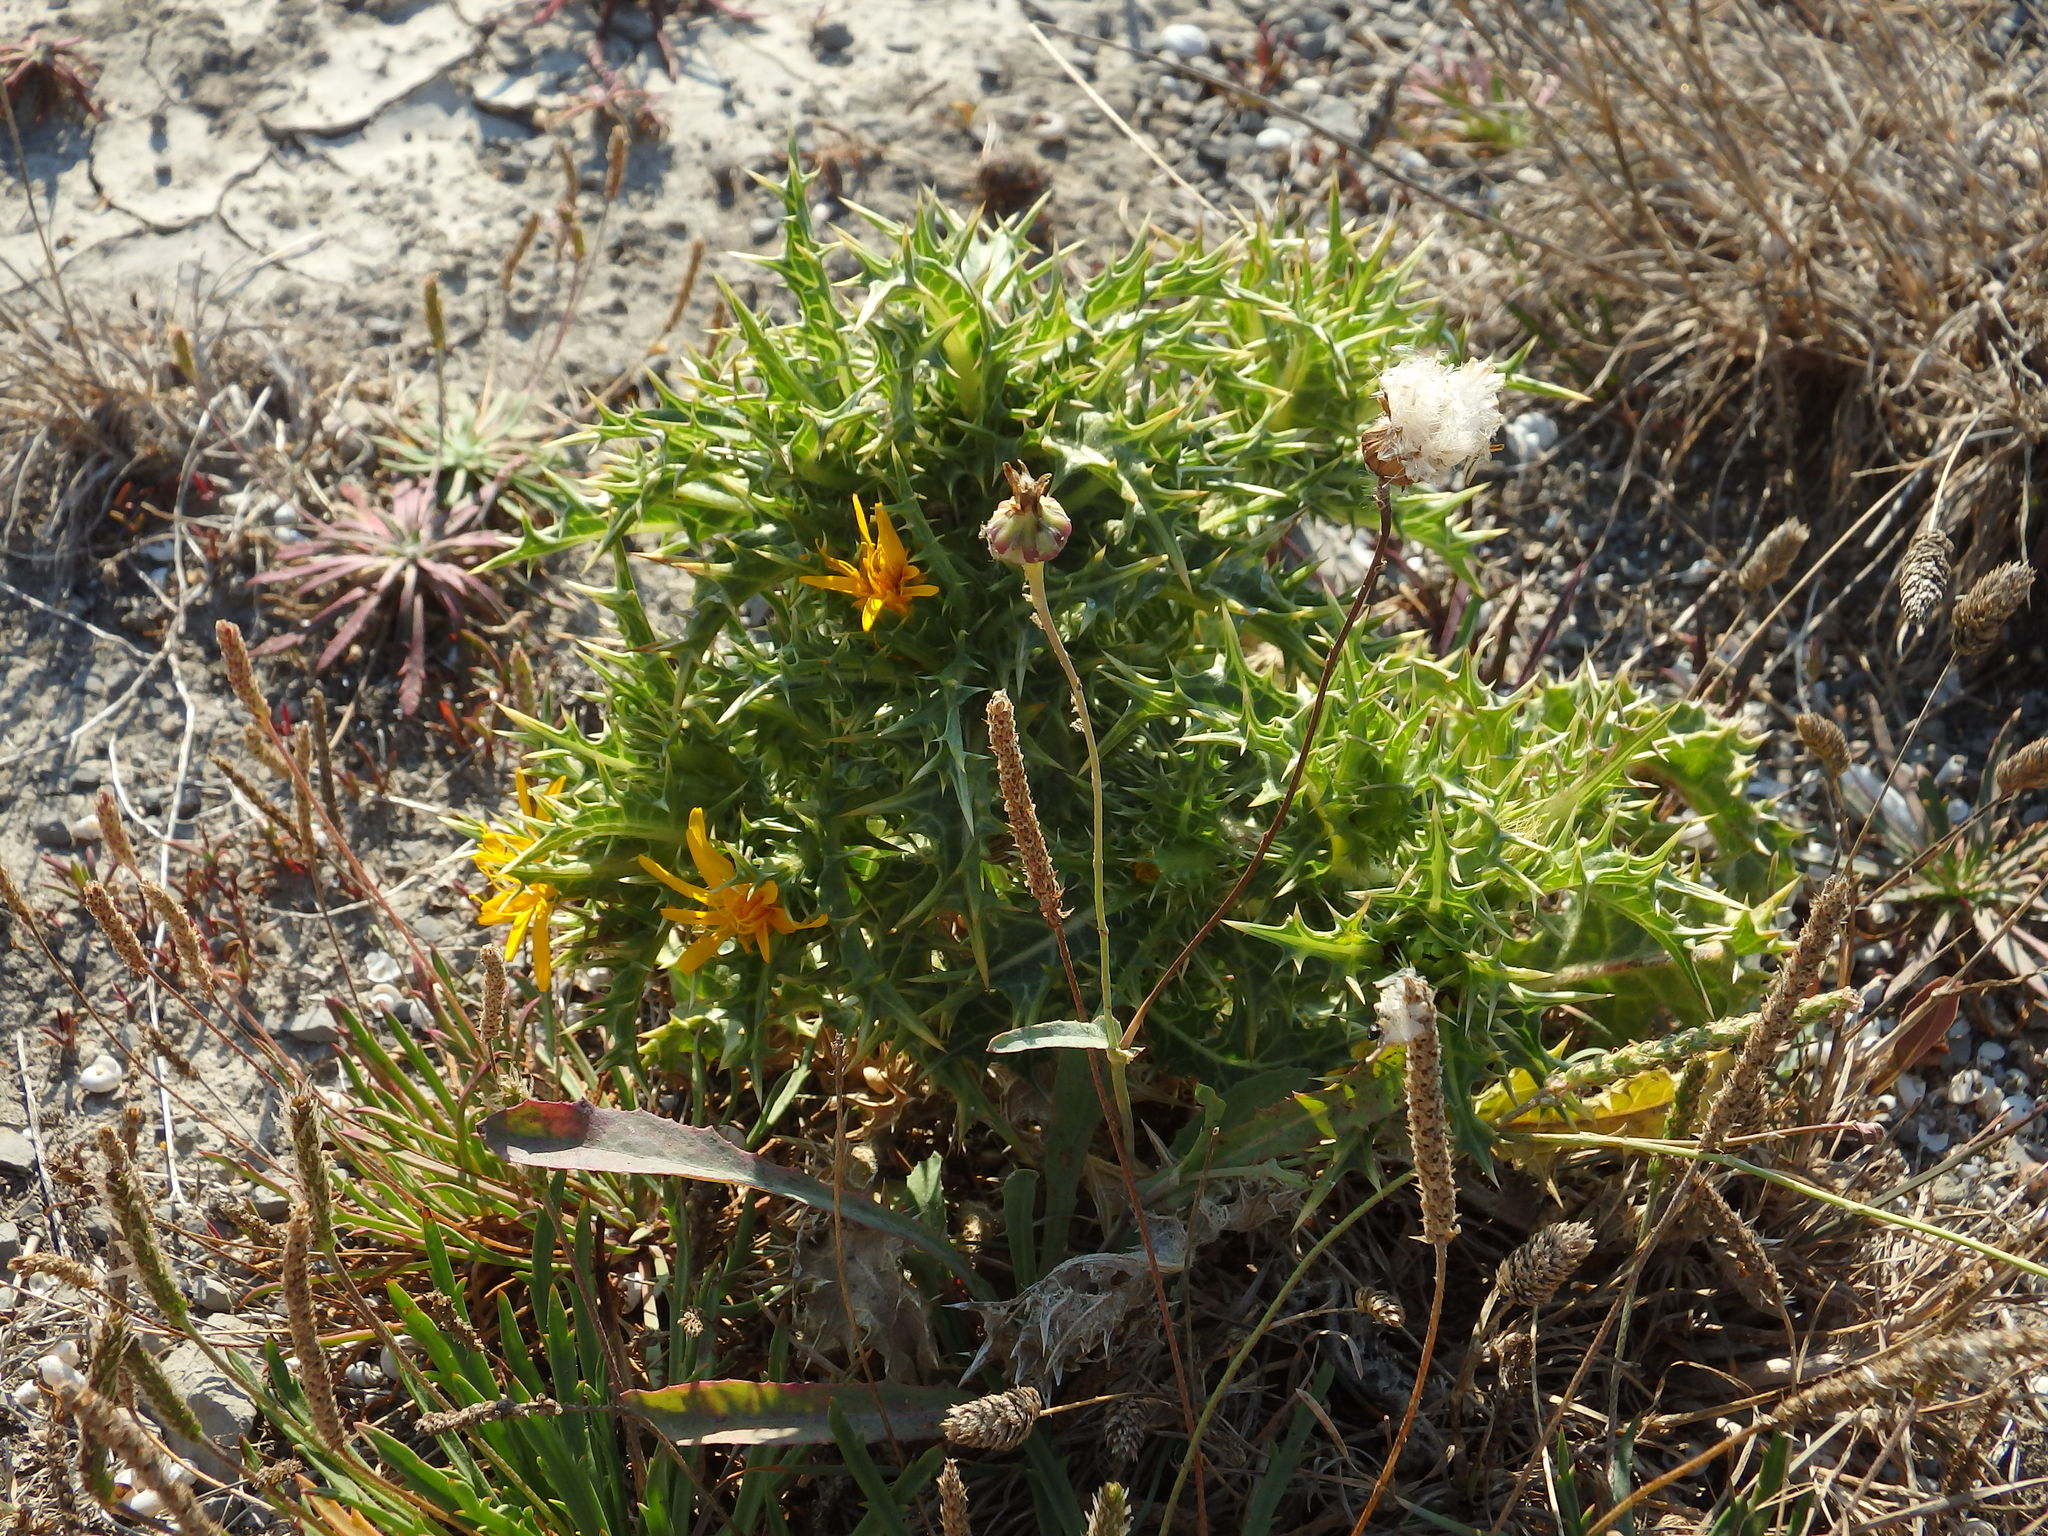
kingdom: Plantae
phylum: Tracheophyta
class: Magnoliopsida
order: Asterales
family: Asteraceae
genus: Scolymus
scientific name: Scolymus hispanicus
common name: Golden thistle
